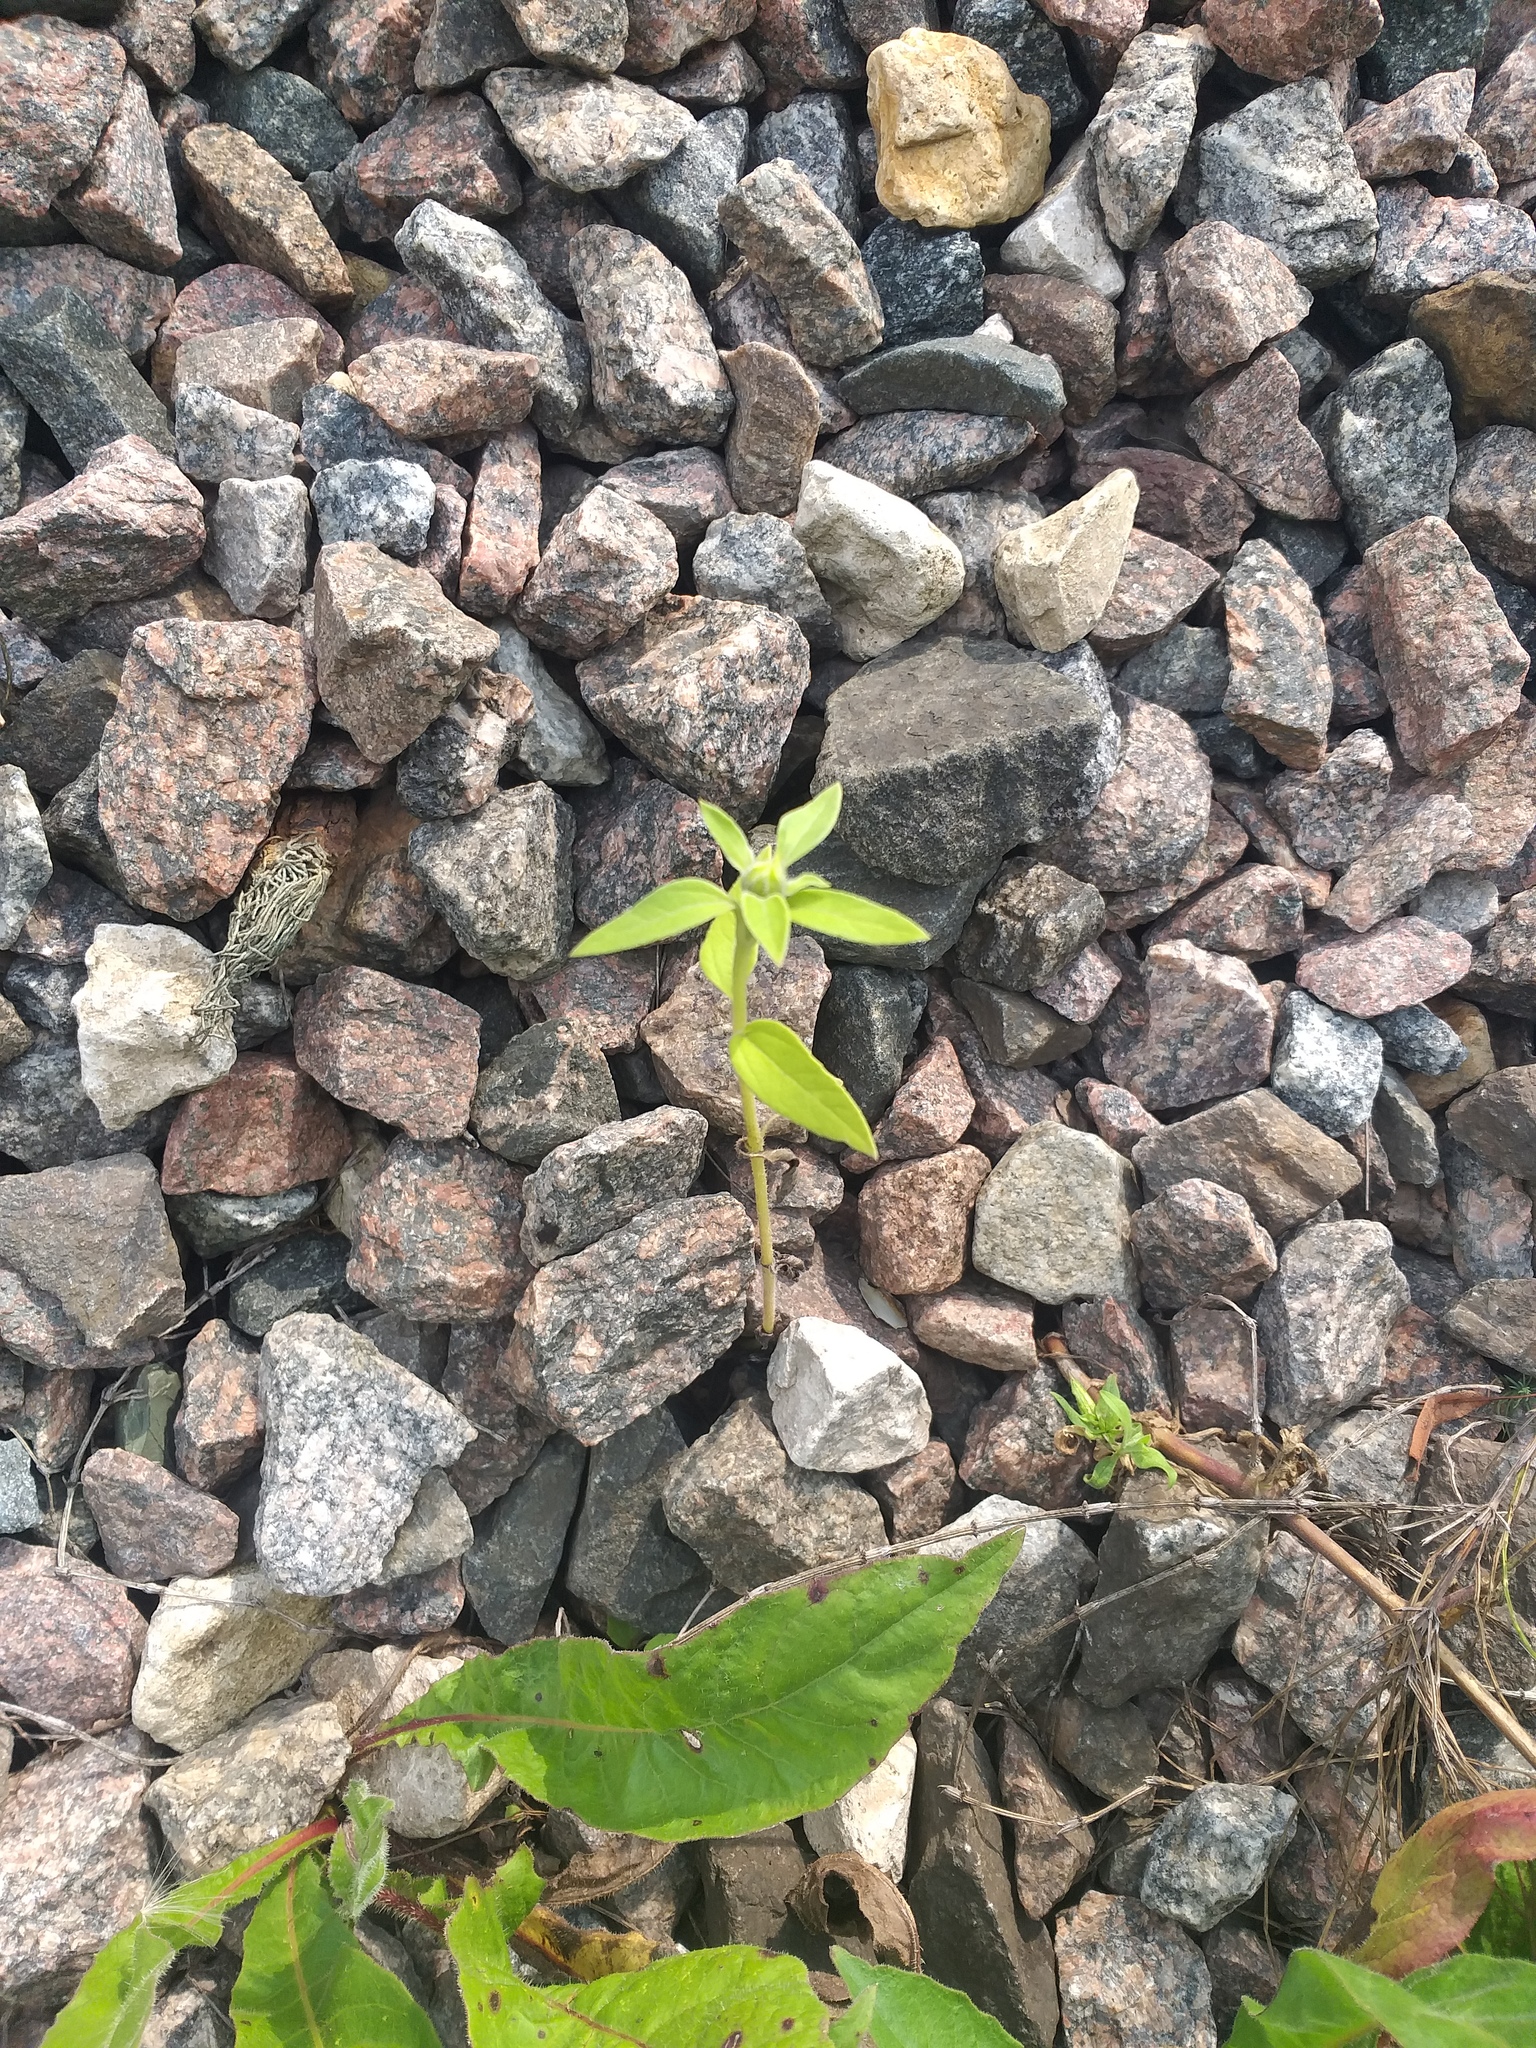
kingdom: Plantae
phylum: Tracheophyta
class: Magnoliopsida
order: Asterales
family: Asteraceae
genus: Helianthus
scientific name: Helianthus annuus
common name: Sunflower
